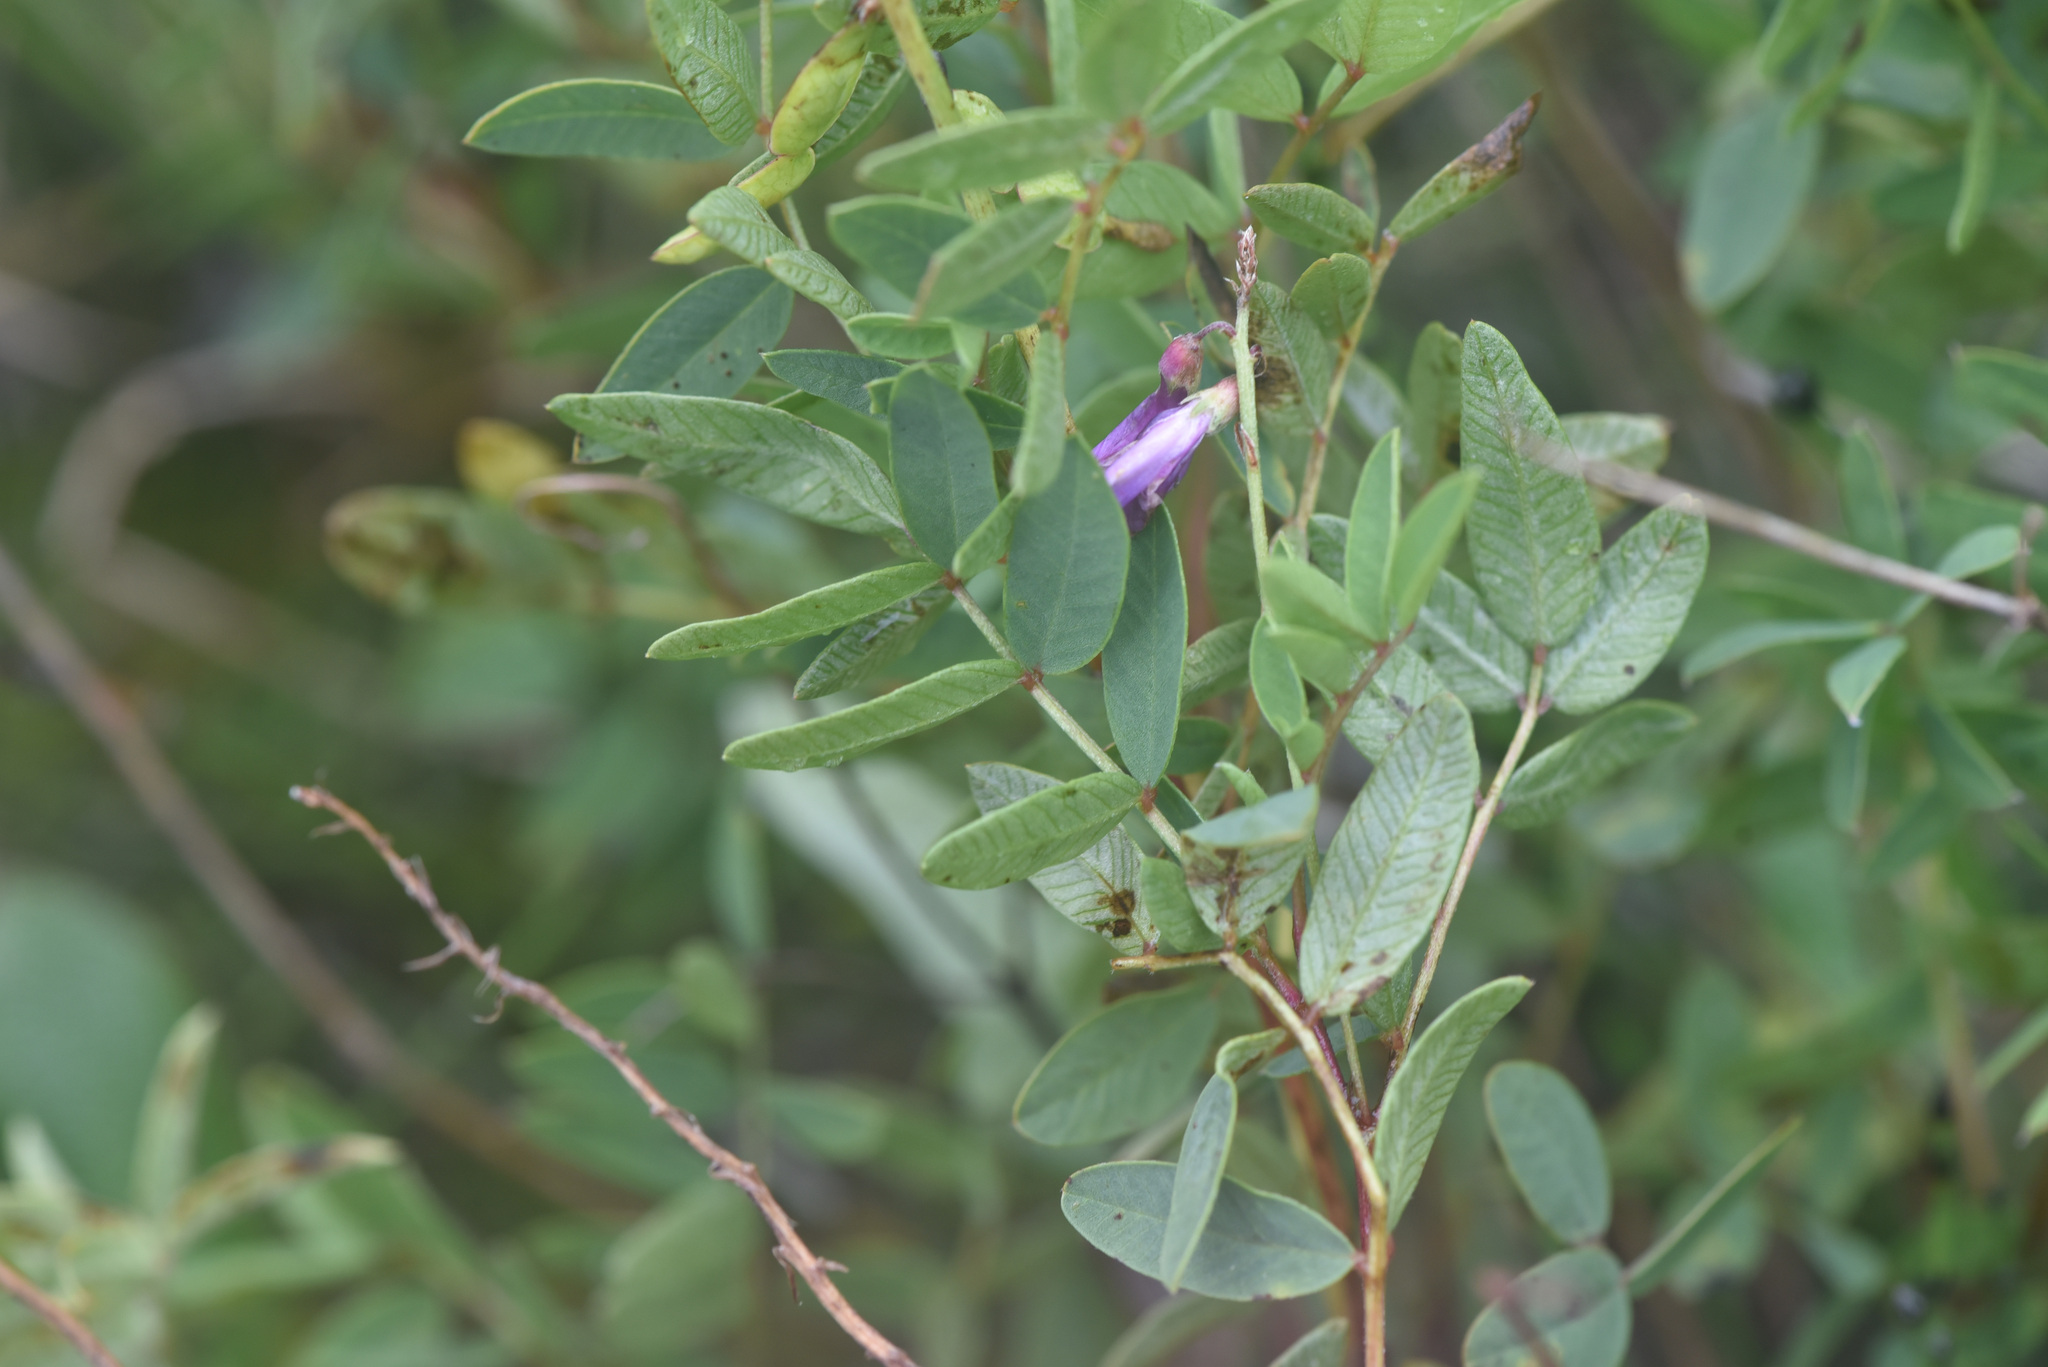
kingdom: Plantae
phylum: Tracheophyta
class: Magnoliopsida
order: Fabales
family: Fabaceae
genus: Hedysarum
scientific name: Hedysarum
